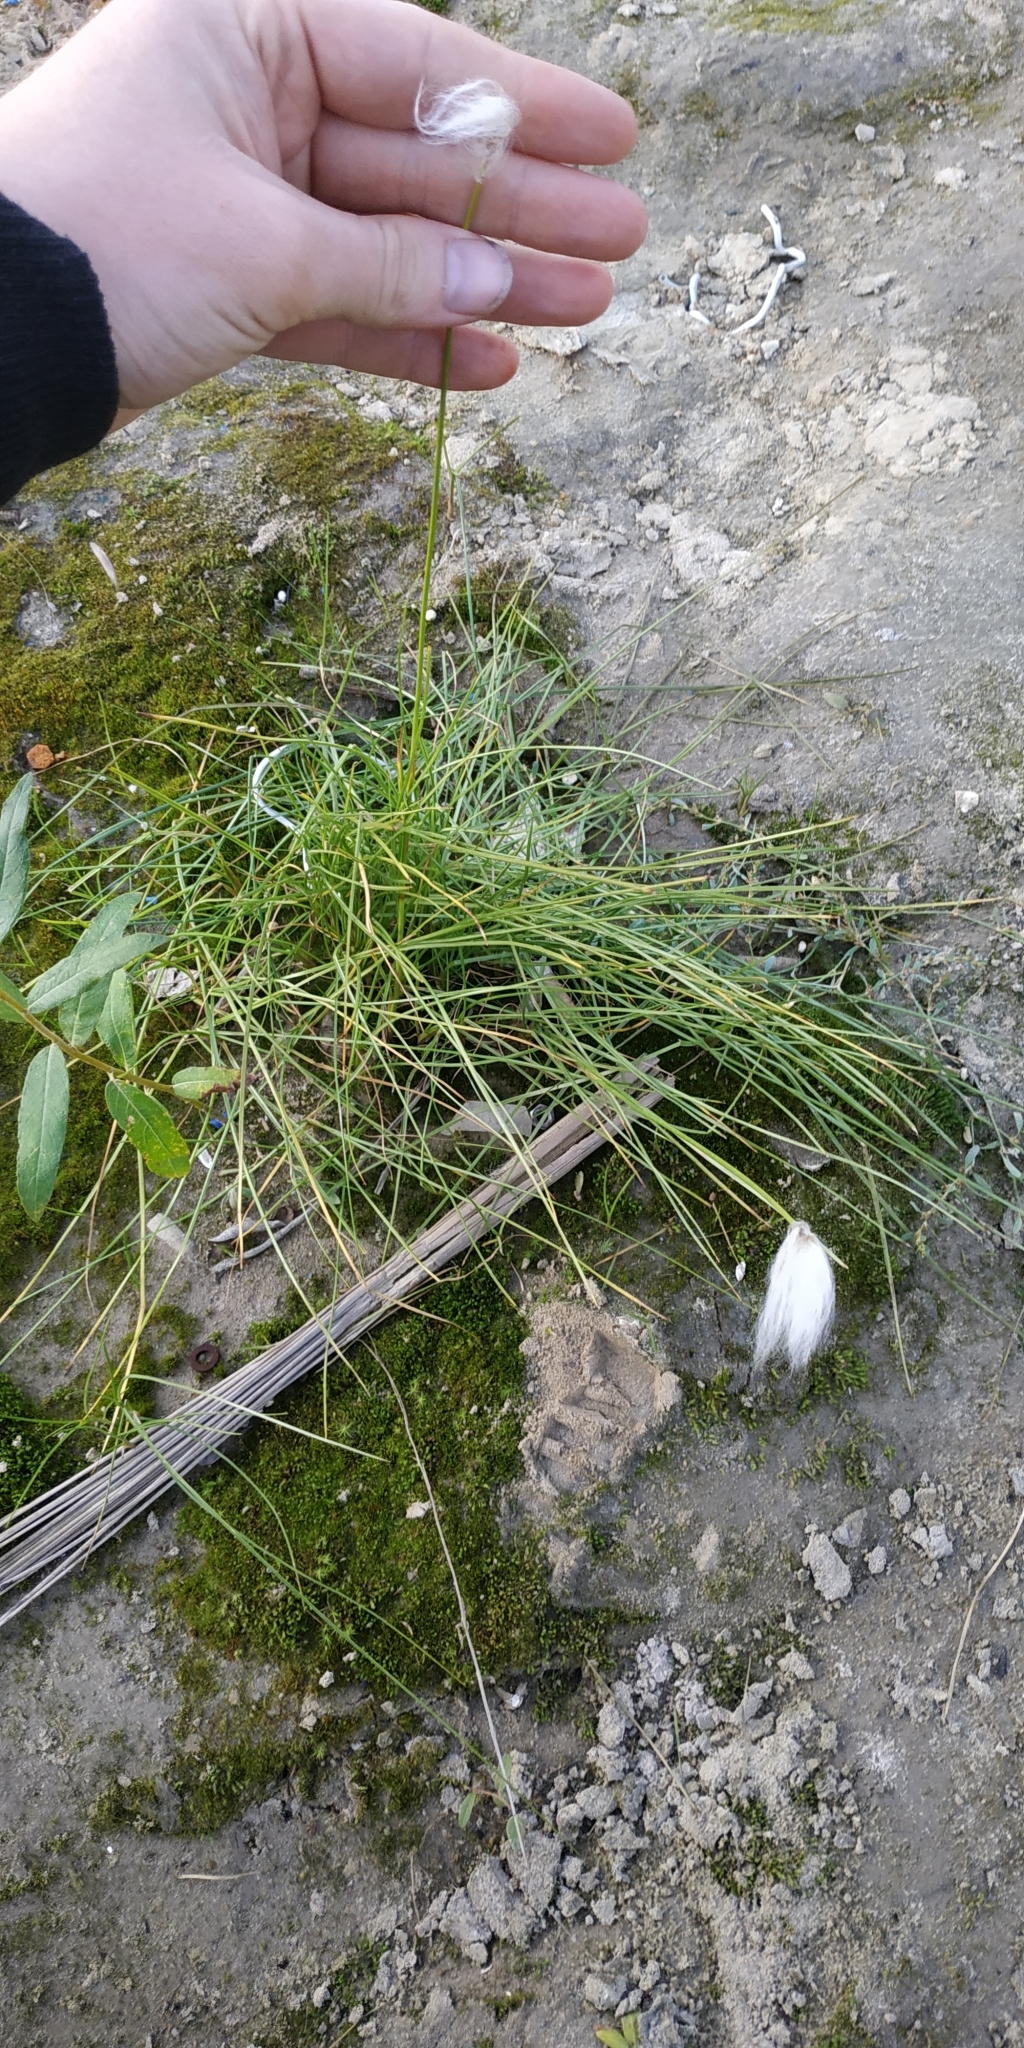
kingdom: Plantae
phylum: Tracheophyta
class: Liliopsida
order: Poales
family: Cyperaceae
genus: Eriophorum
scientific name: Eriophorum vaginatum
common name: Hare's-tail cottongrass
